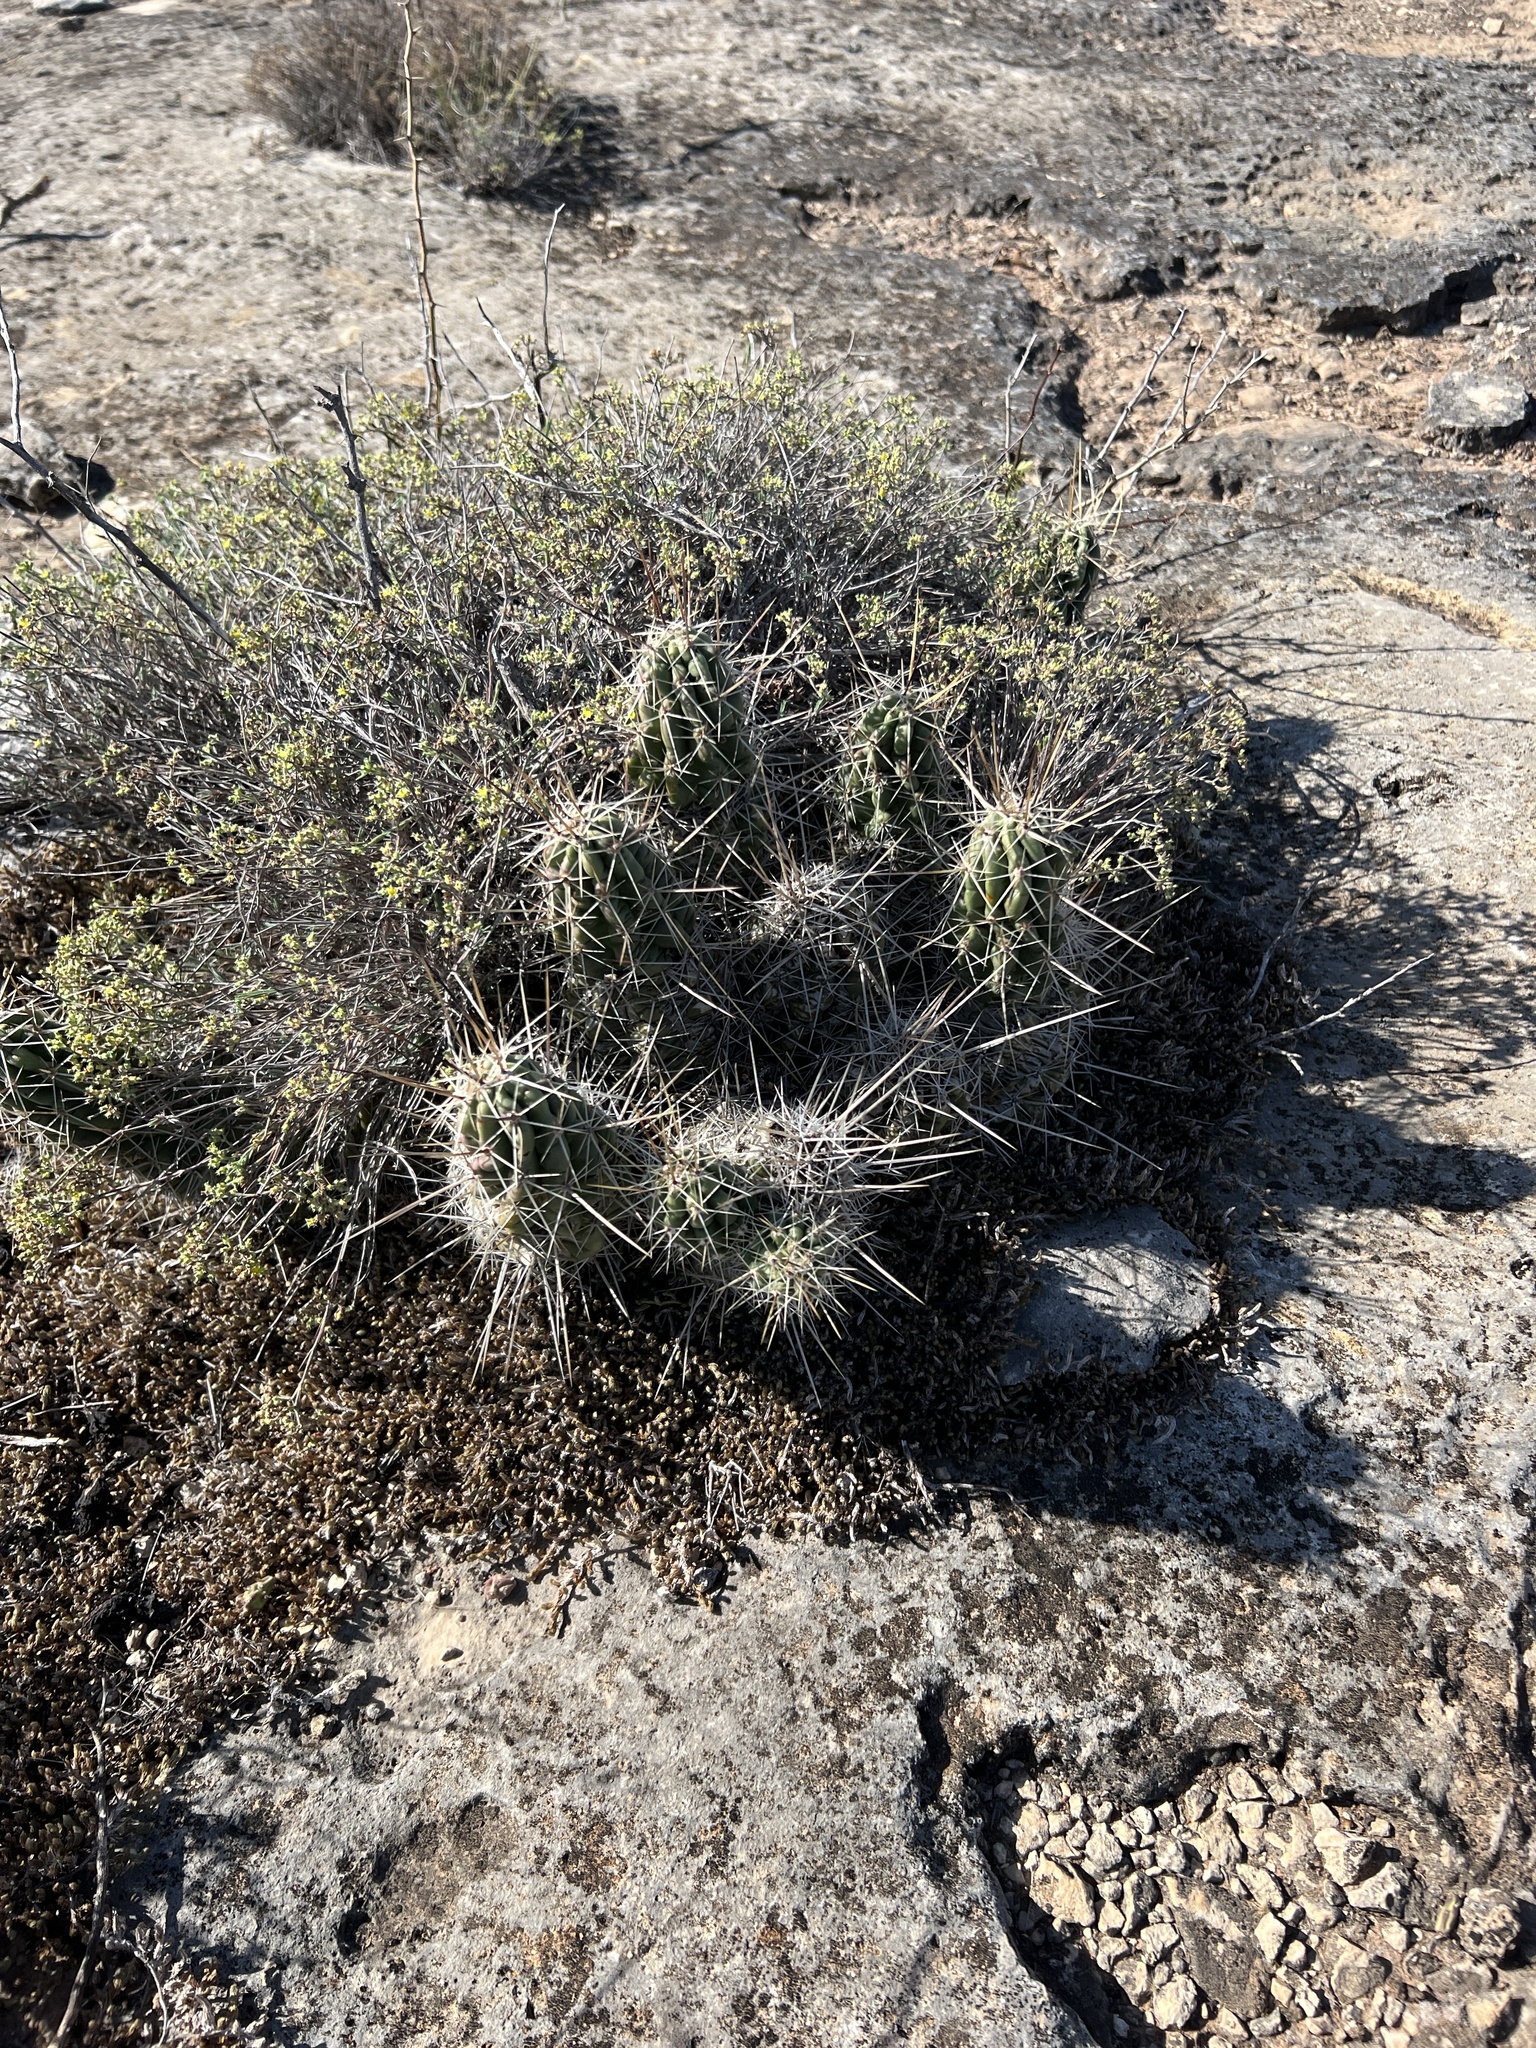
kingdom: Plantae
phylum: Tracheophyta
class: Magnoliopsida
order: Caryophyllales
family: Cactaceae
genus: Echinocereus
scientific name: Echinocereus enneacanthus
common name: Pitaya
